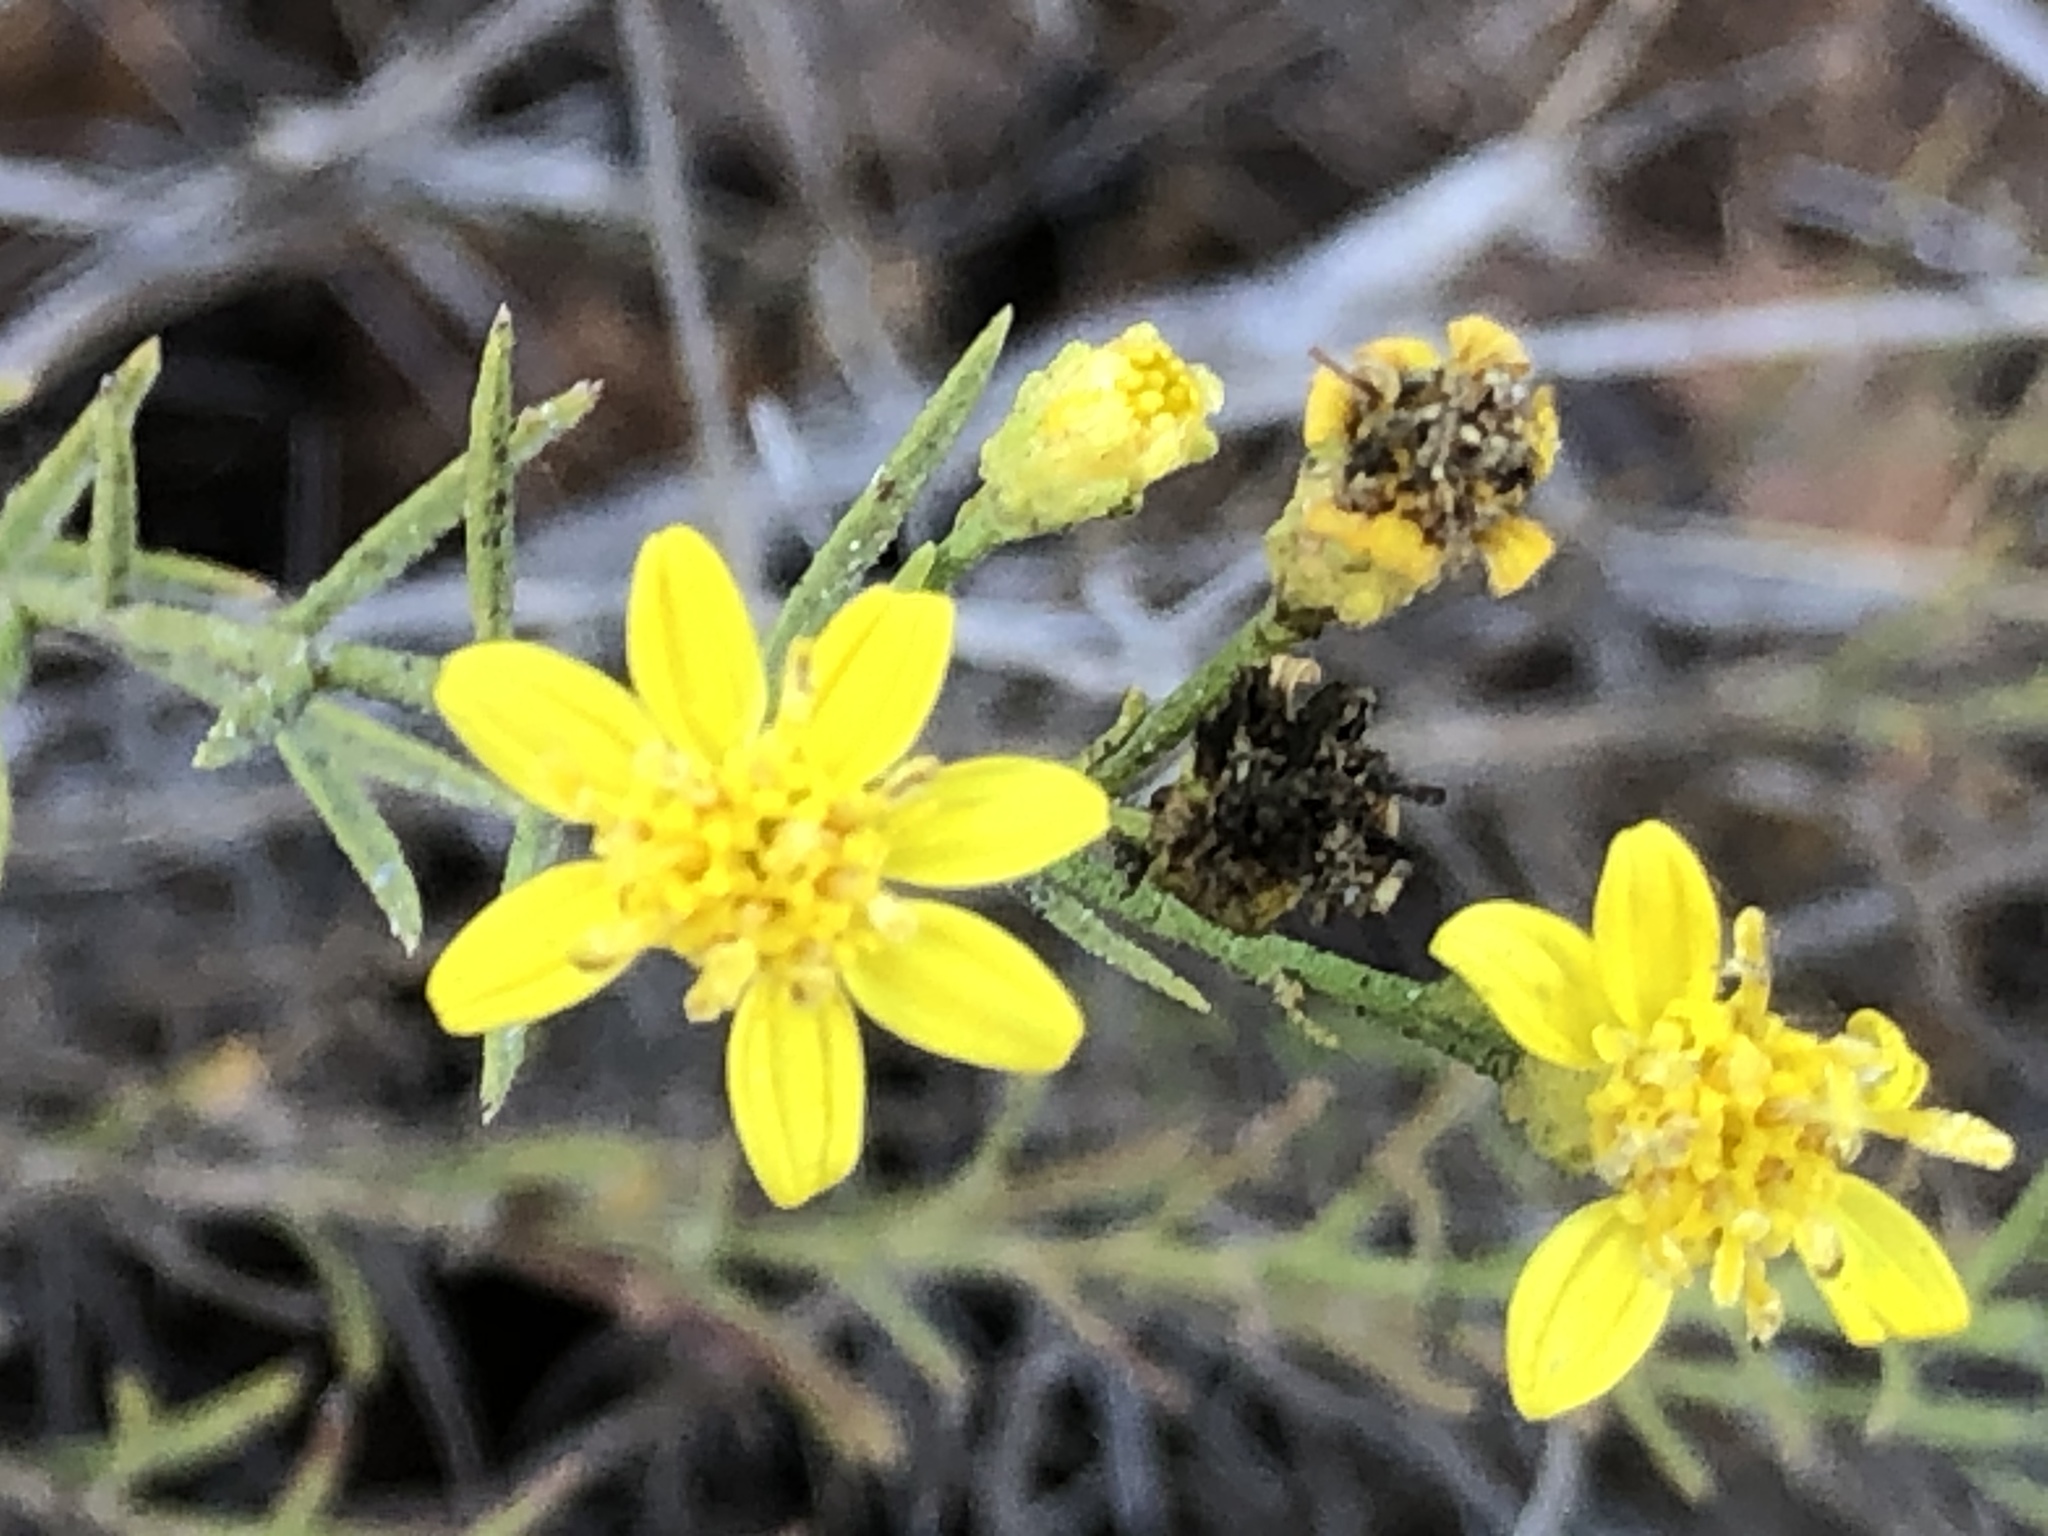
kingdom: Plantae
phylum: Tracheophyta
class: Magnoliopsida
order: Asterales
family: Asteraceae
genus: Gutierrezia
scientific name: Gutierrezia californica
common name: California matchweed
